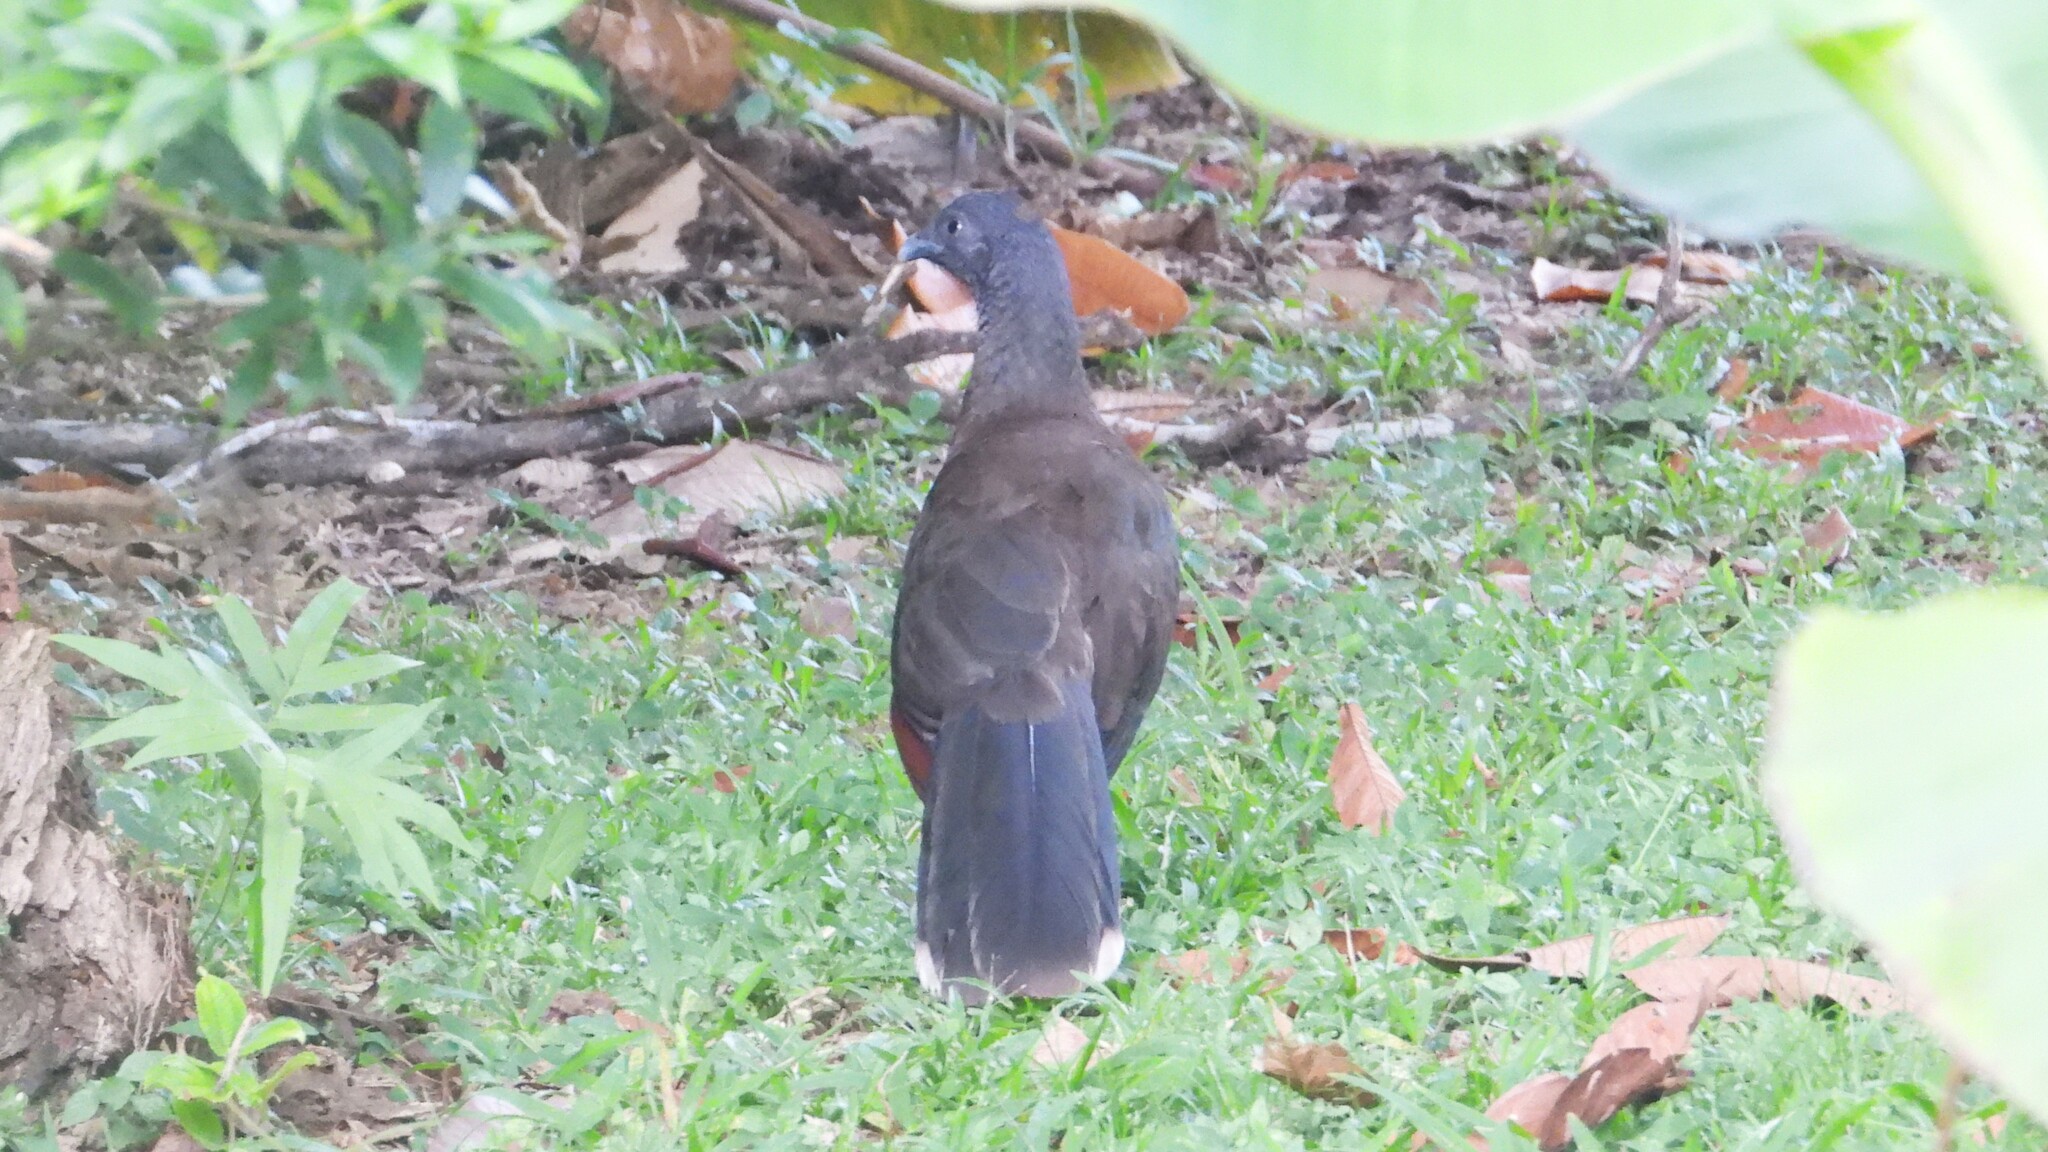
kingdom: Animalia
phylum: Chordata
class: Aves
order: Galliformes
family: Cracidae
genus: Ortalis
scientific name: Ortalis cinereiceps
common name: Grey-headed chachalaca
